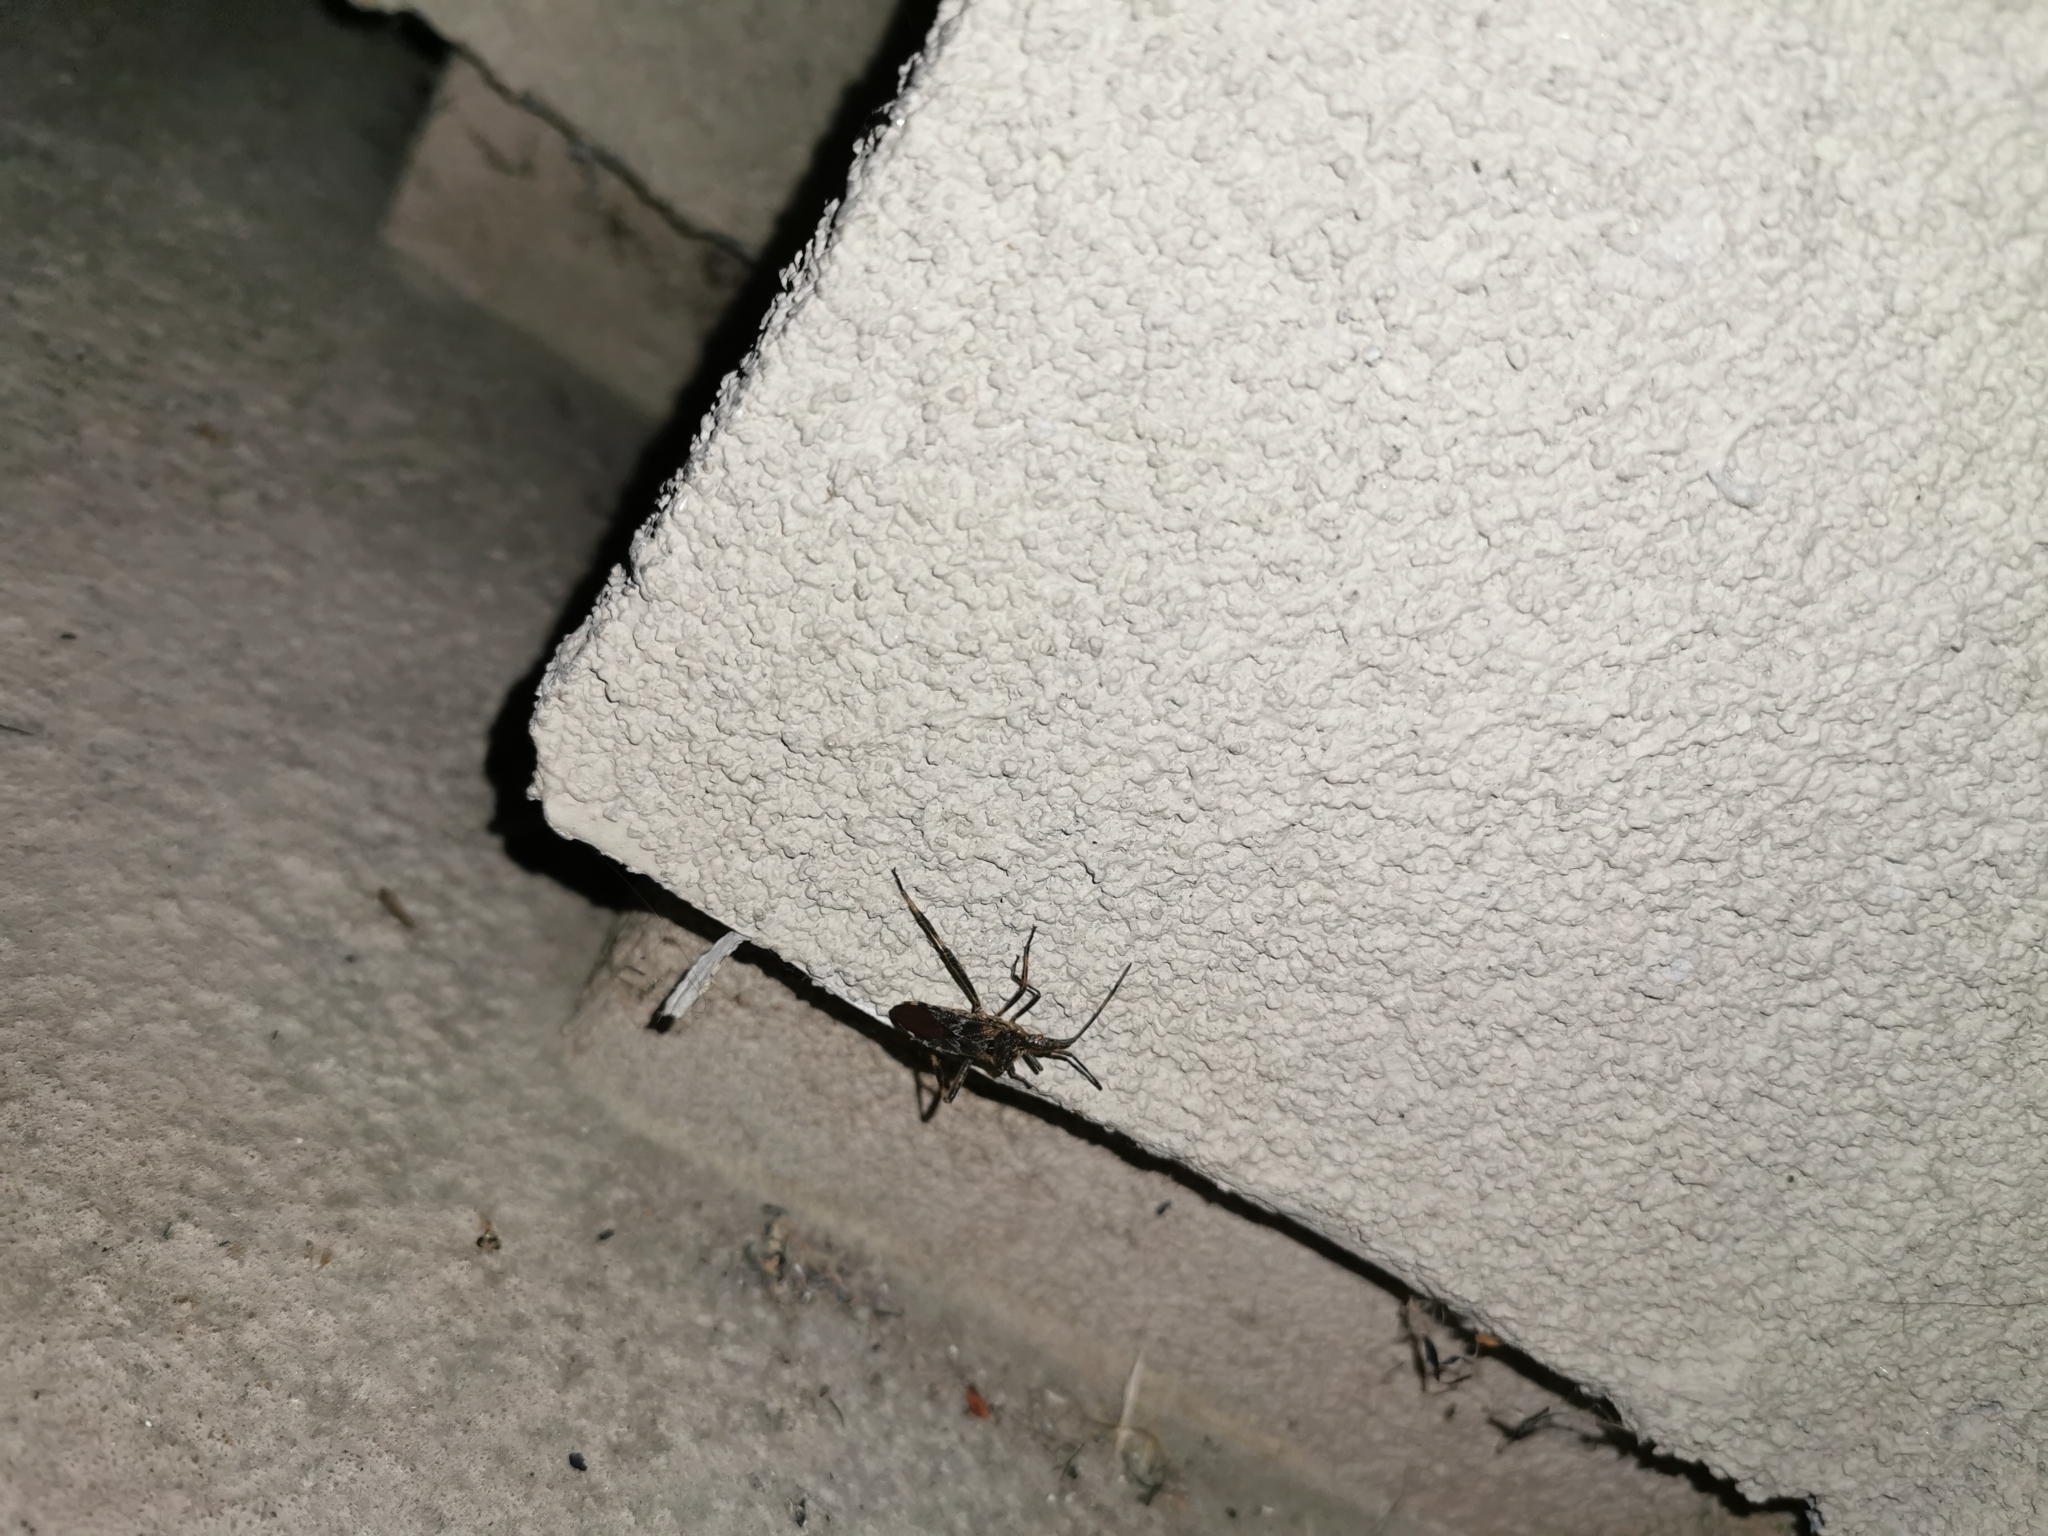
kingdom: Animalia
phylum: Arthropoda
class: Insecta
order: Hemiptera
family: Coreidae
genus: Leptoglossus
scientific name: Leptoglossus occidentalis
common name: Western conifer-seed bug
